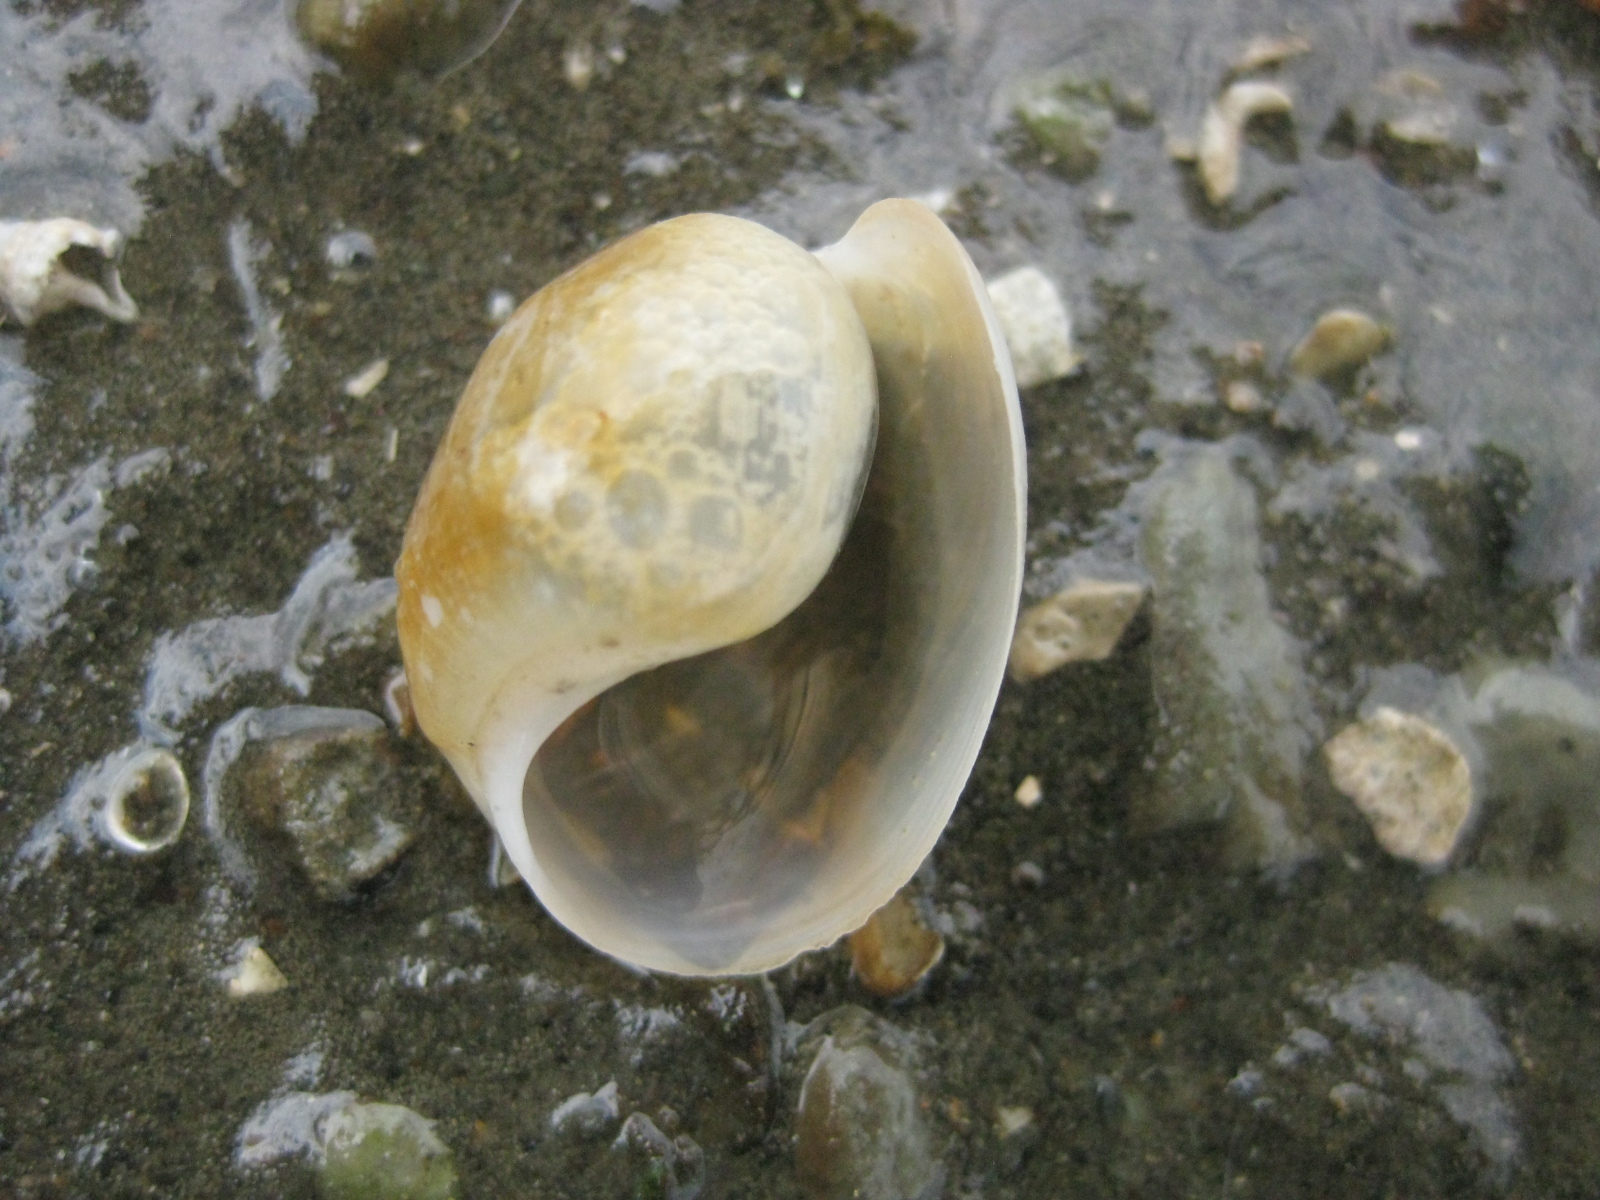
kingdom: Animalia
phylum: Mollusca
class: Gastropoda
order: Cephalaspidea
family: Haminoeidae
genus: Papawera
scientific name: Papawera zelandiae
